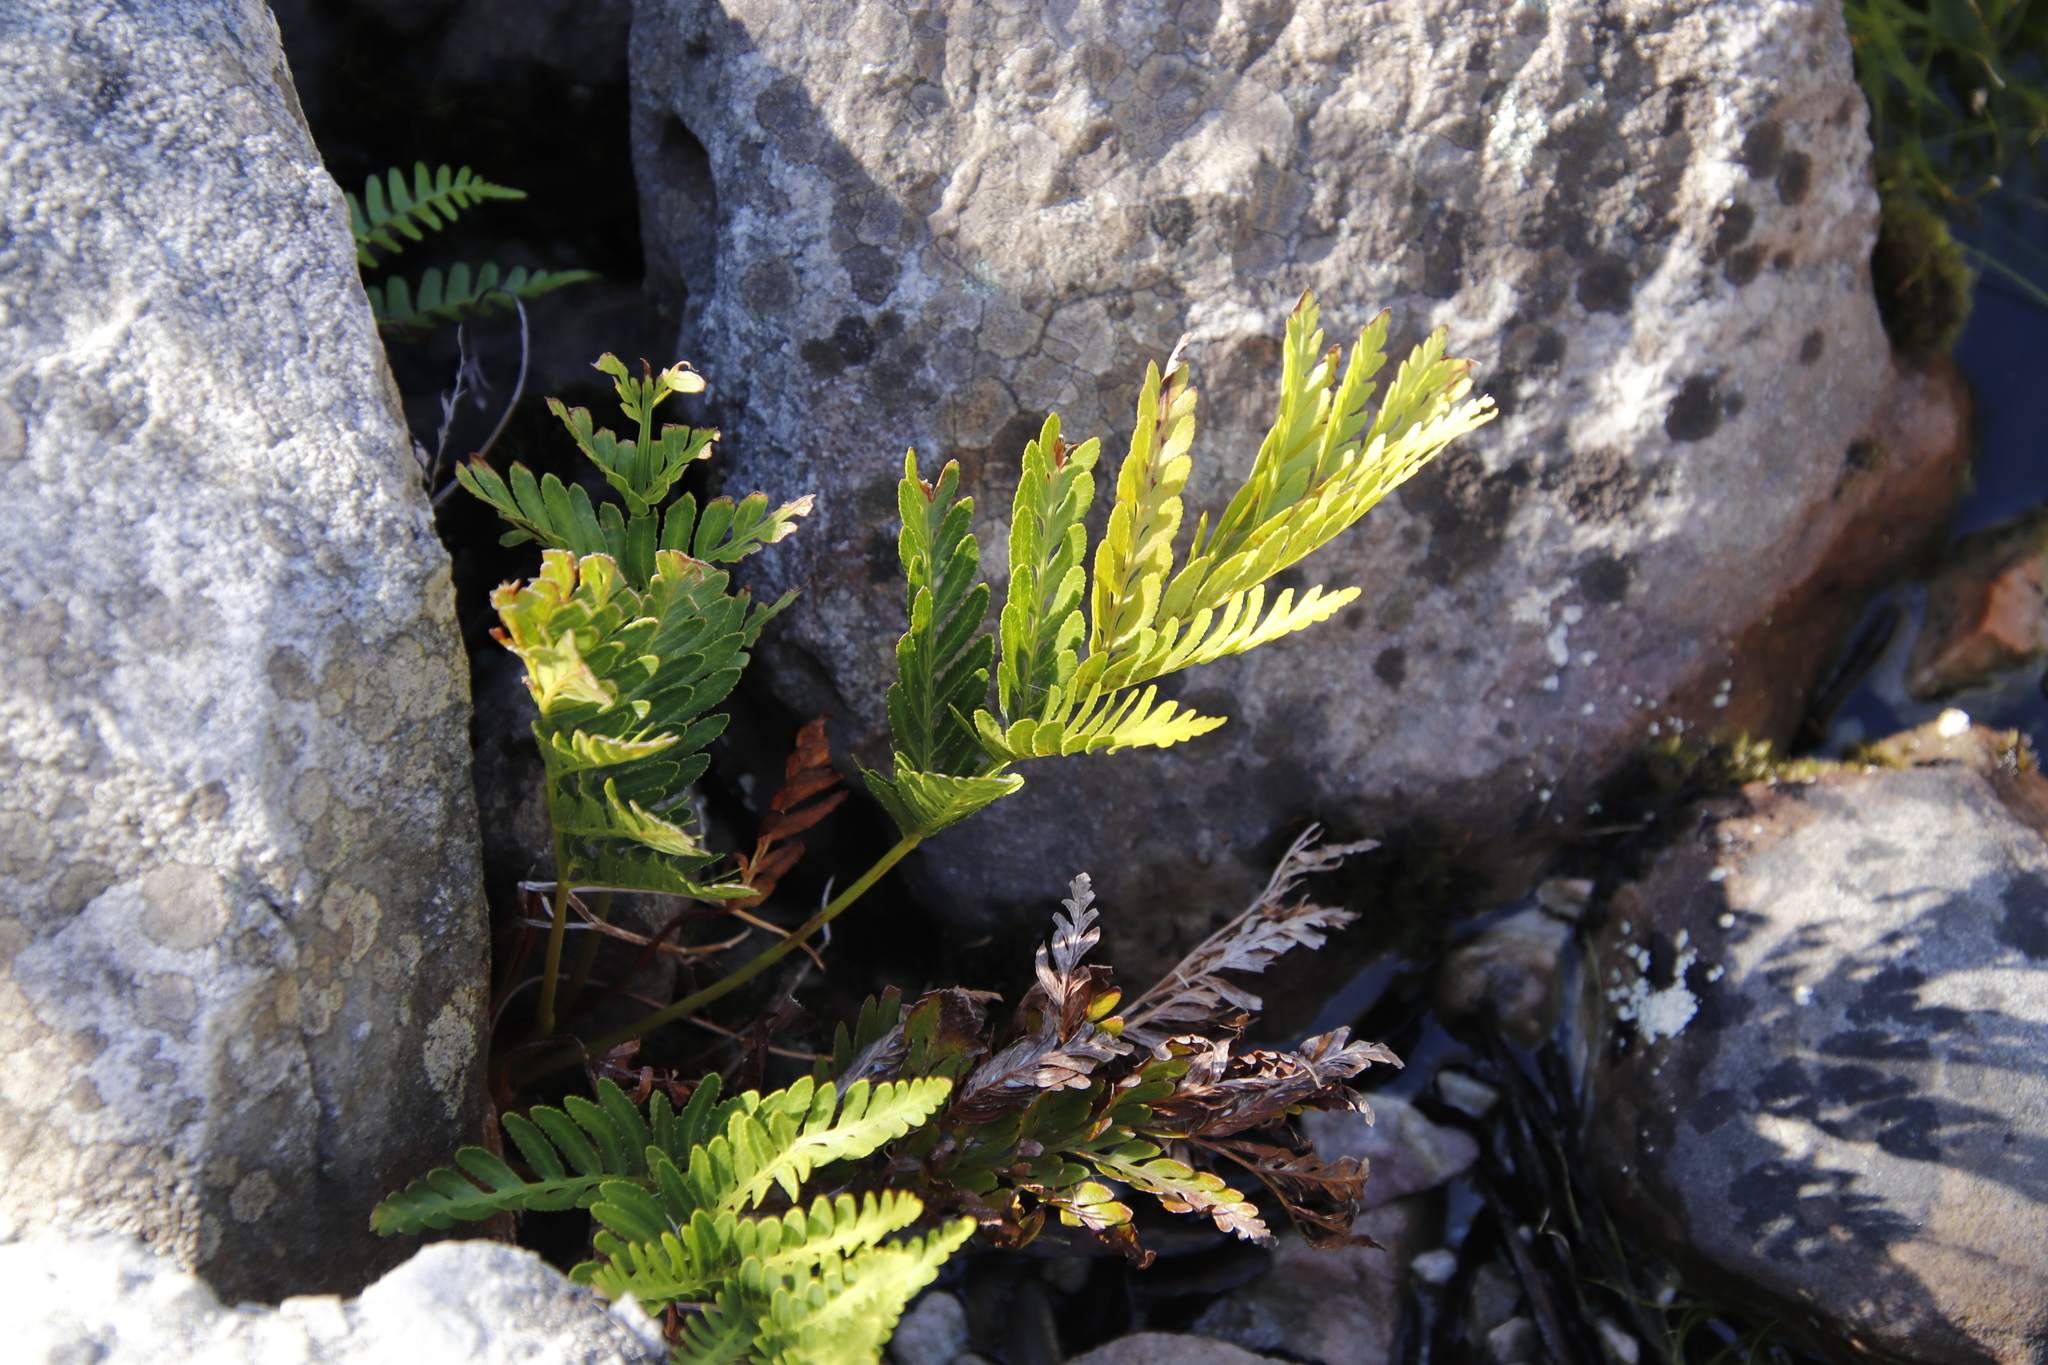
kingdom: Plantae
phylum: Tracheophyta
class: Polypodiopsida
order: Osmundales
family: Osmundaceae
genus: Todea
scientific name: Todea barbara
